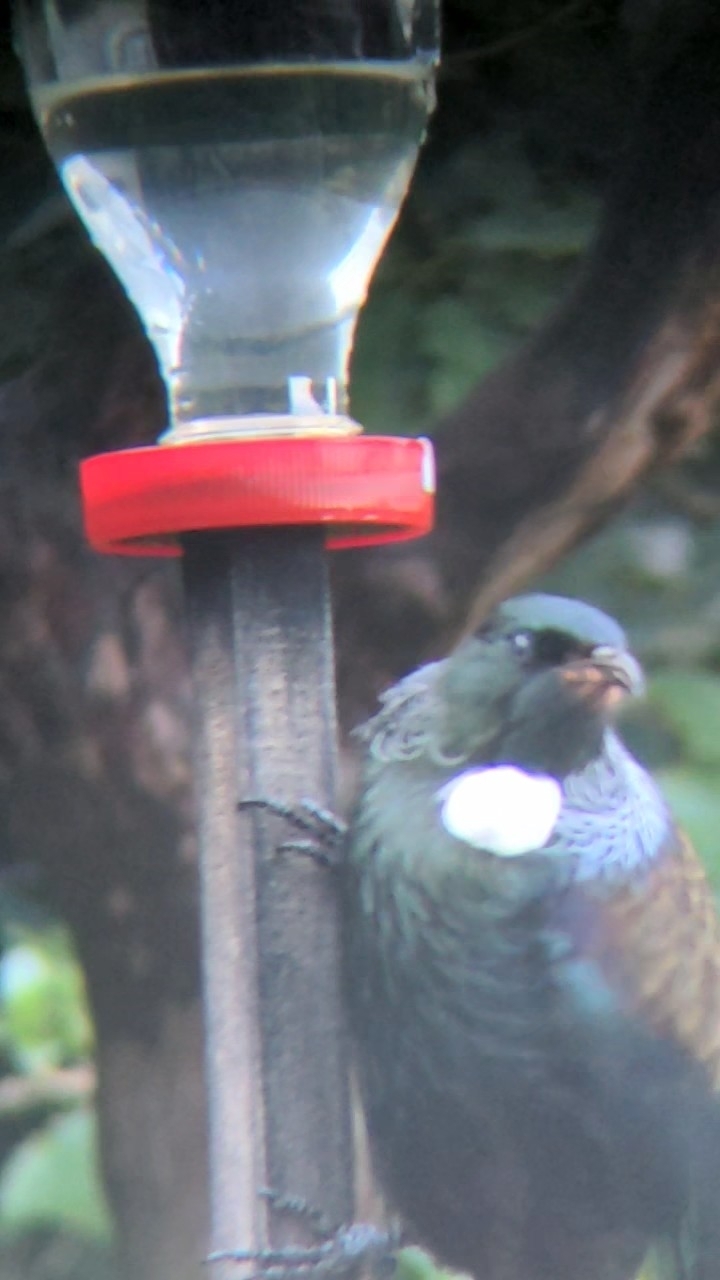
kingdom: Animalia
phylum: Chordata
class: Aves
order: Passeriformes
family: Meliphagidae
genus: Prosthemadera
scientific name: Prosthemadera novaeseelandiae
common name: Tui
